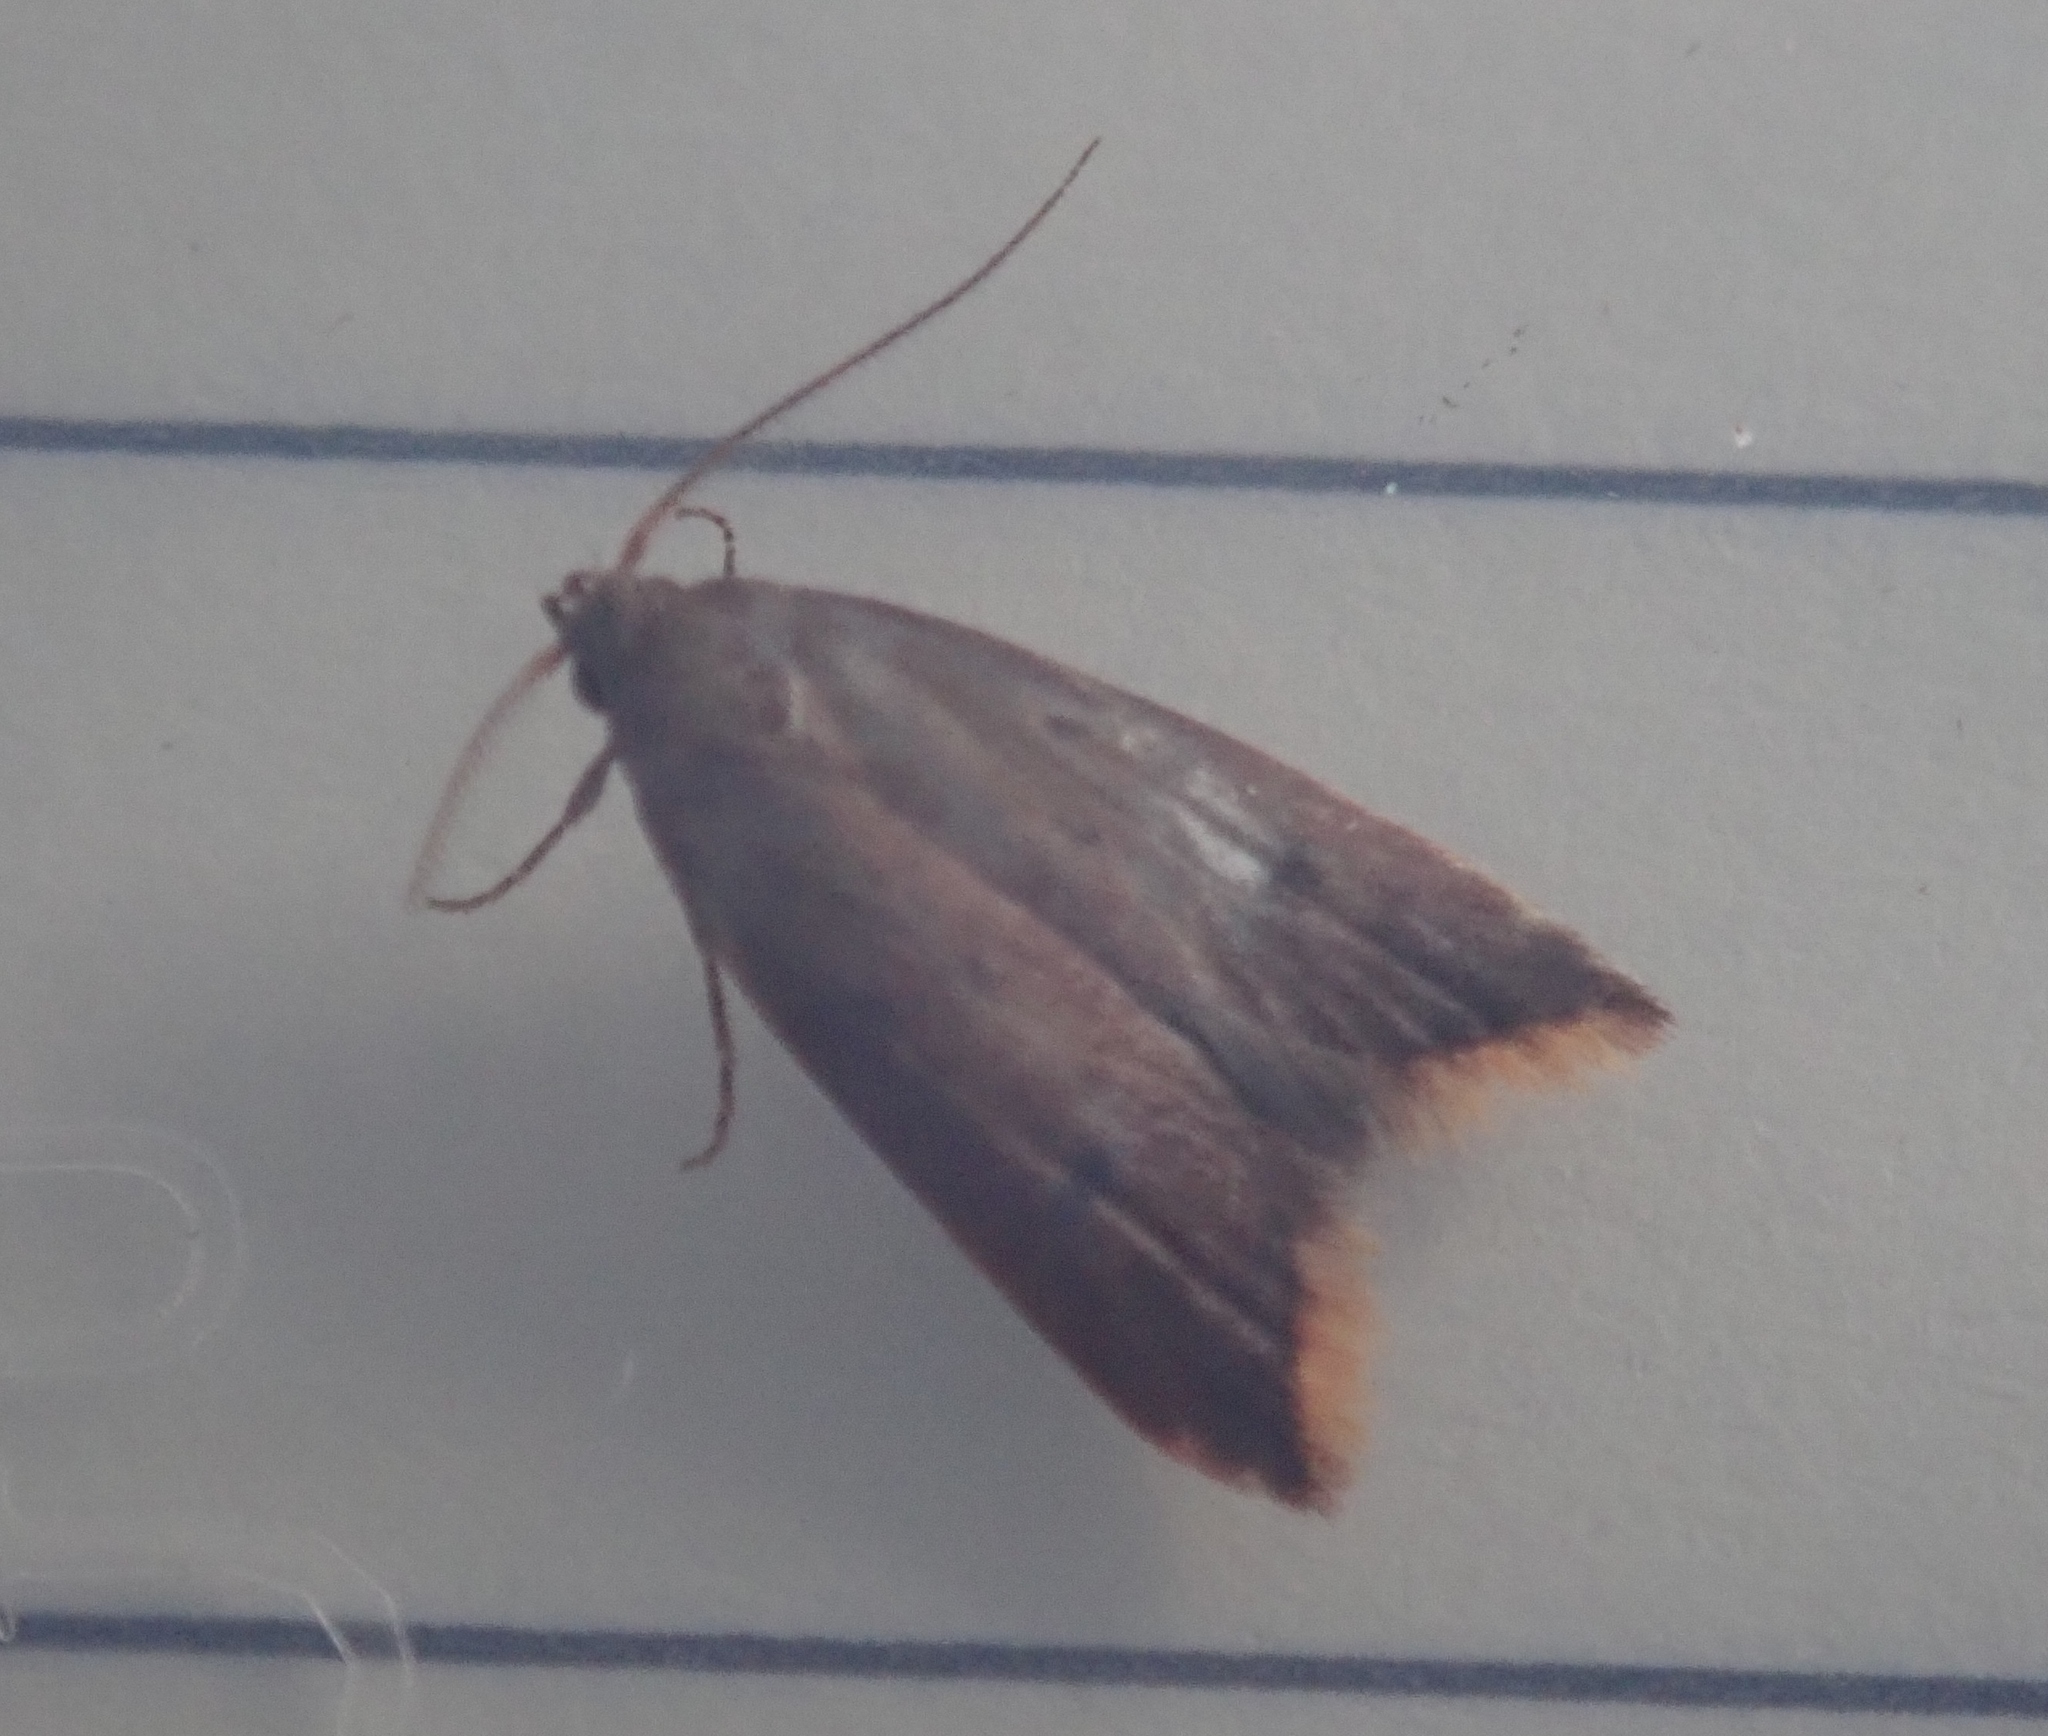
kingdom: Animalia
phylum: Arthropoda
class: Insecta
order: Lepidoptera
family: Oecophoridae
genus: Tachystola
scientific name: Tachystola acroxantha
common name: Ruddy streak
